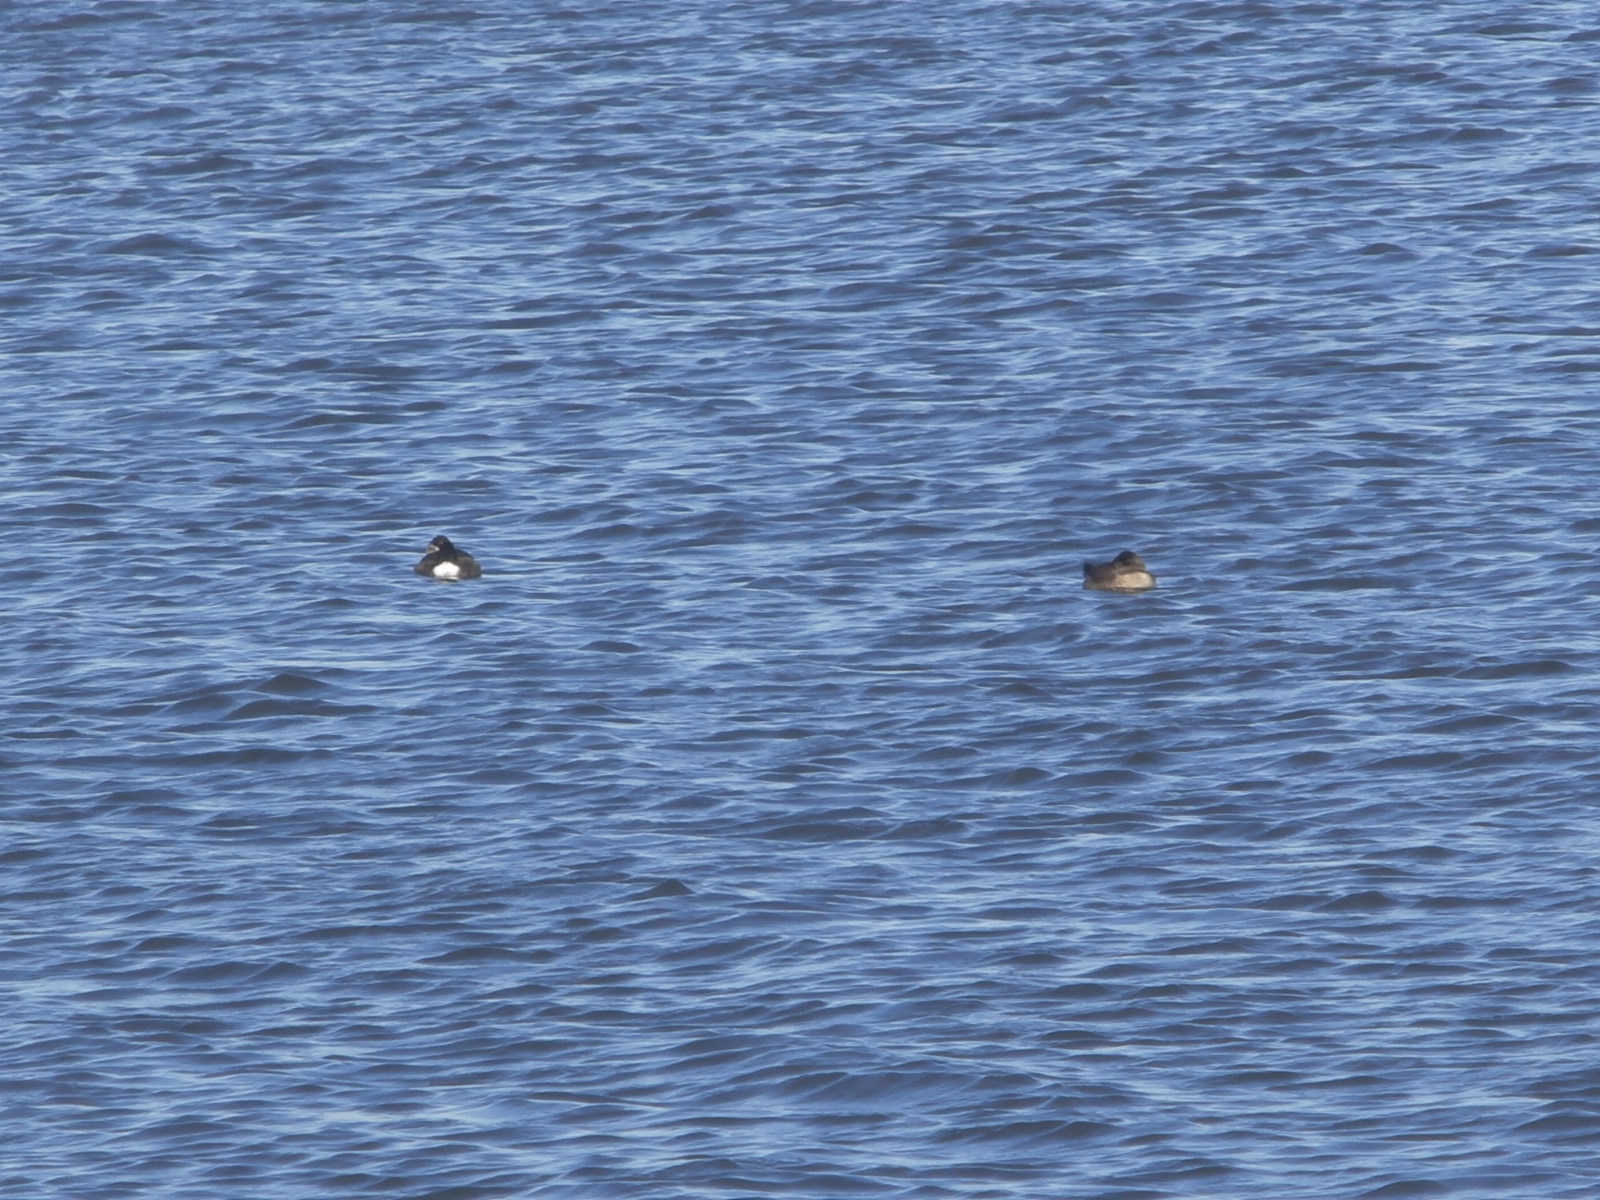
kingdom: Animalia
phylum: Chordata
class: Aves
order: Anseriformes
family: Anatidae
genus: Melanitta
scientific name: Melanitta deglandi
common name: White-winged scoter
